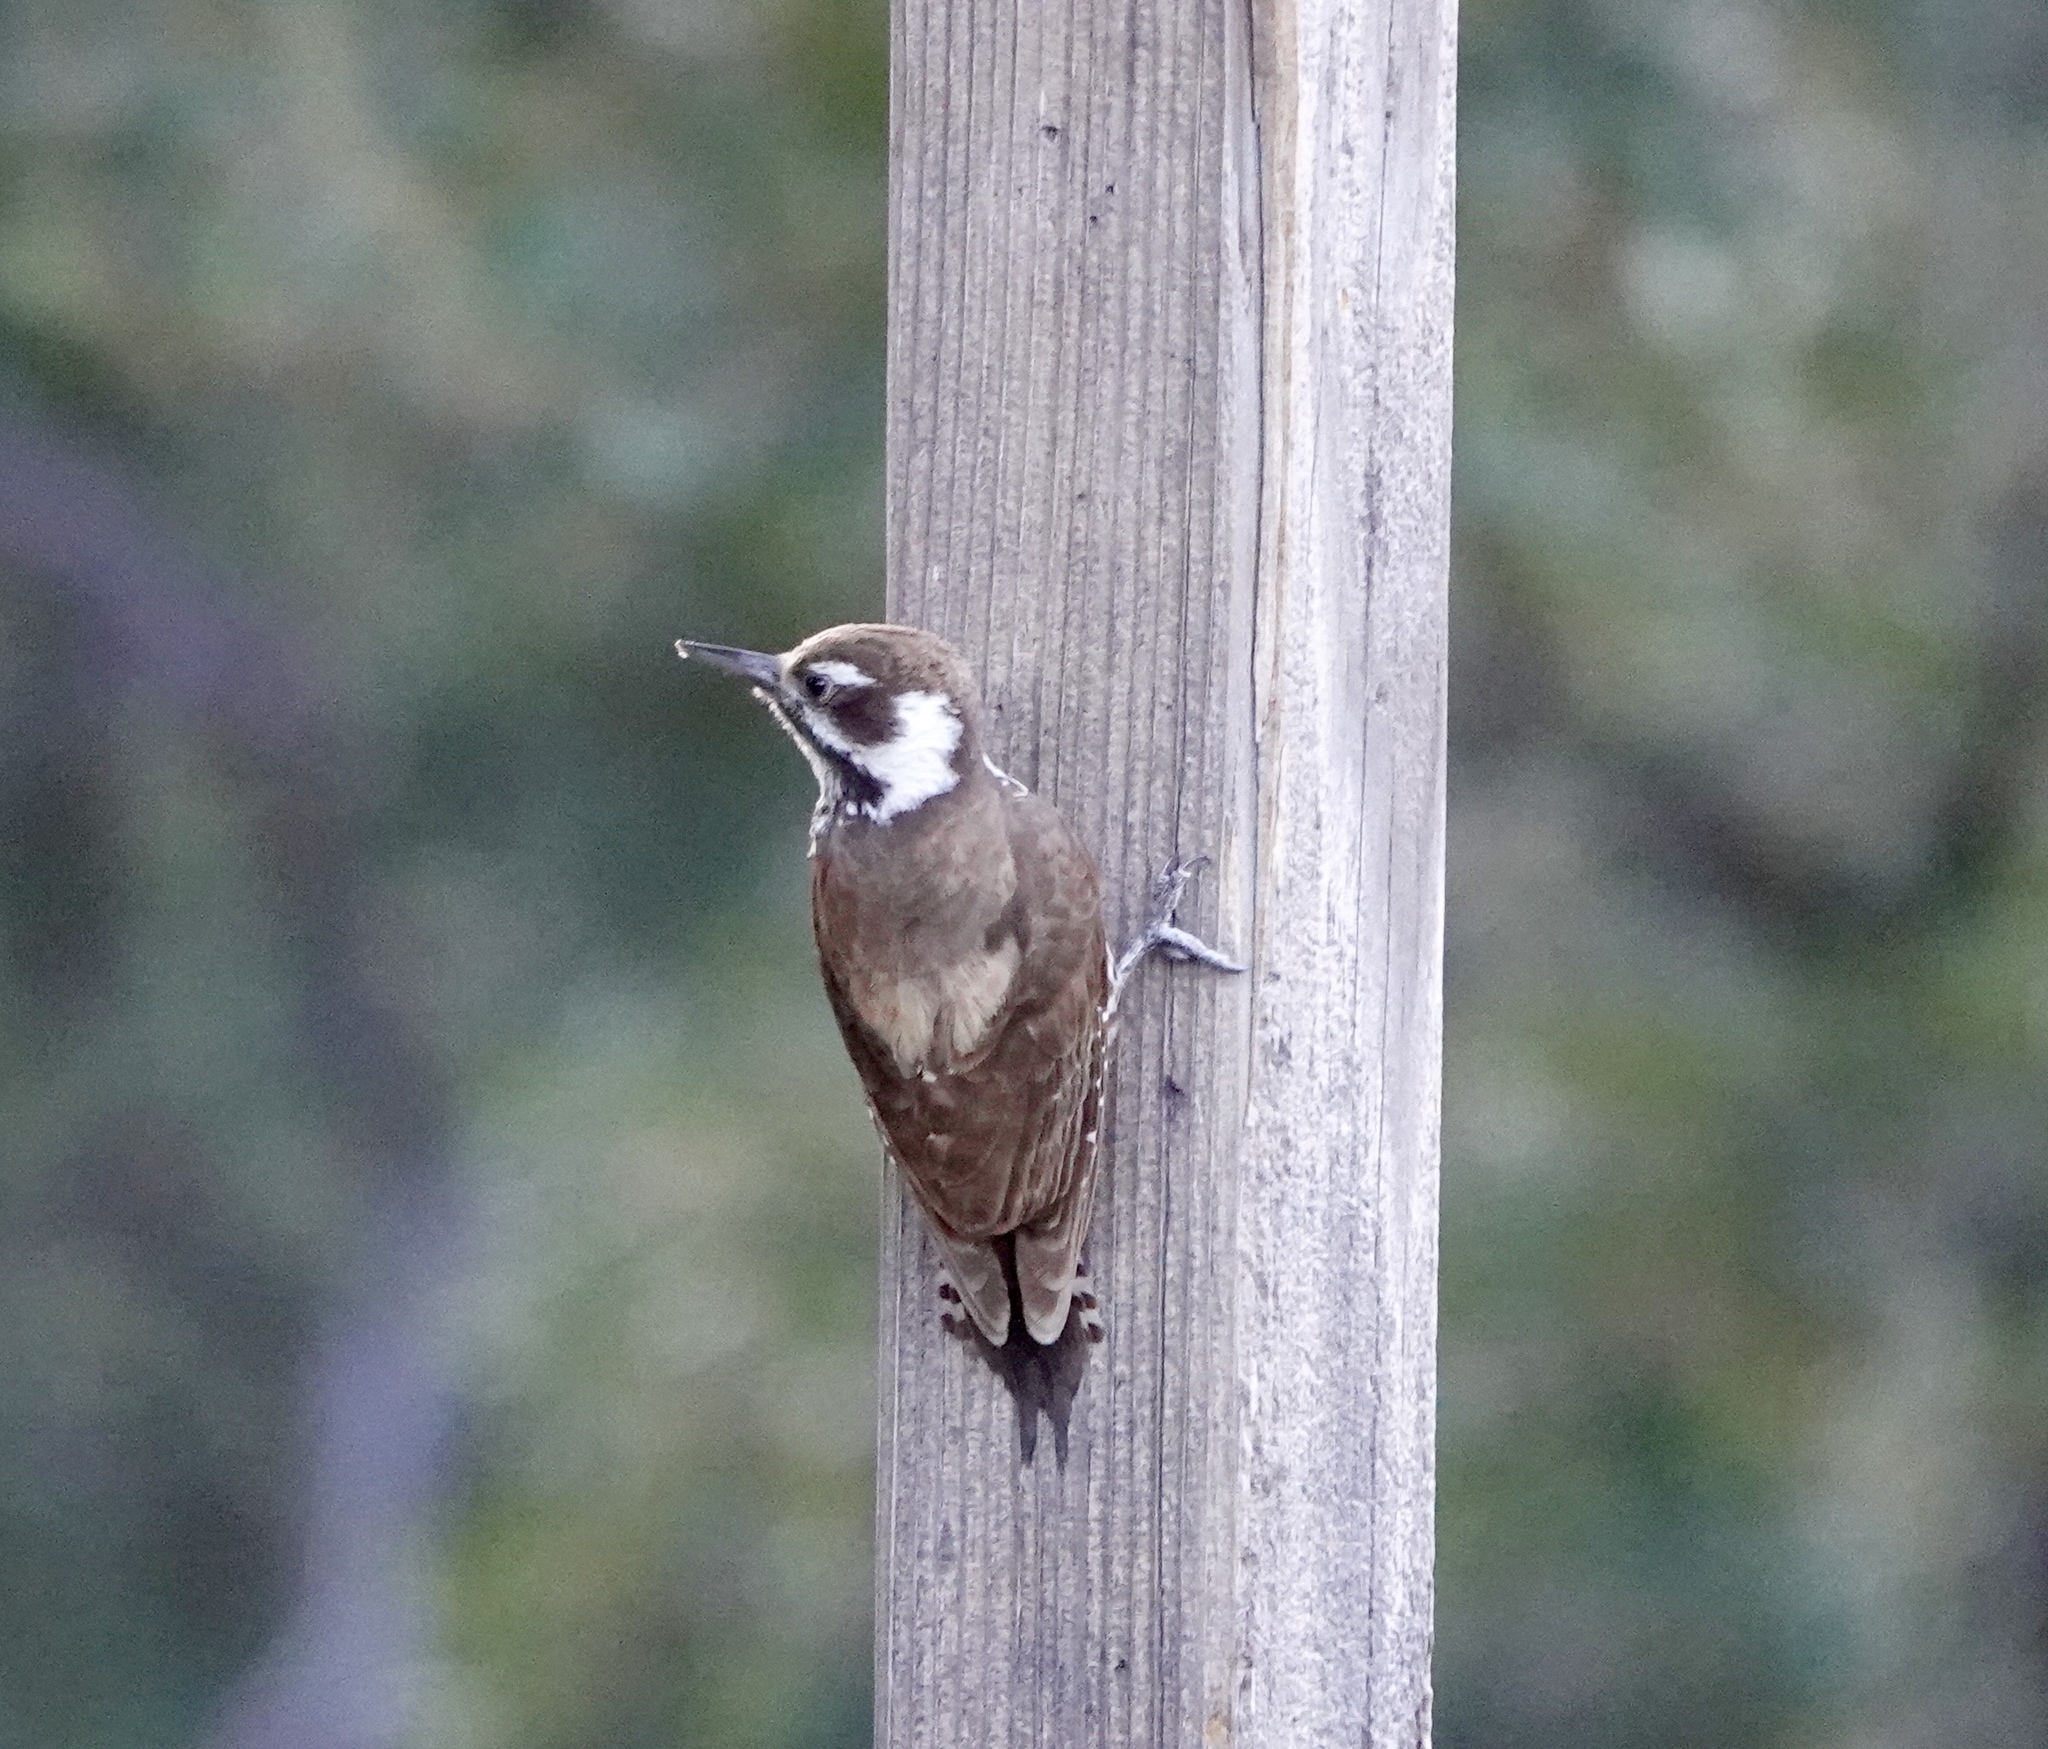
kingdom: Animalia
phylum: Chordata
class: Aves
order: Piciformes
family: Picidae
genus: Leuconotopicus
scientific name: Leuconotopicus arizonae
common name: Arizona woodpecker
